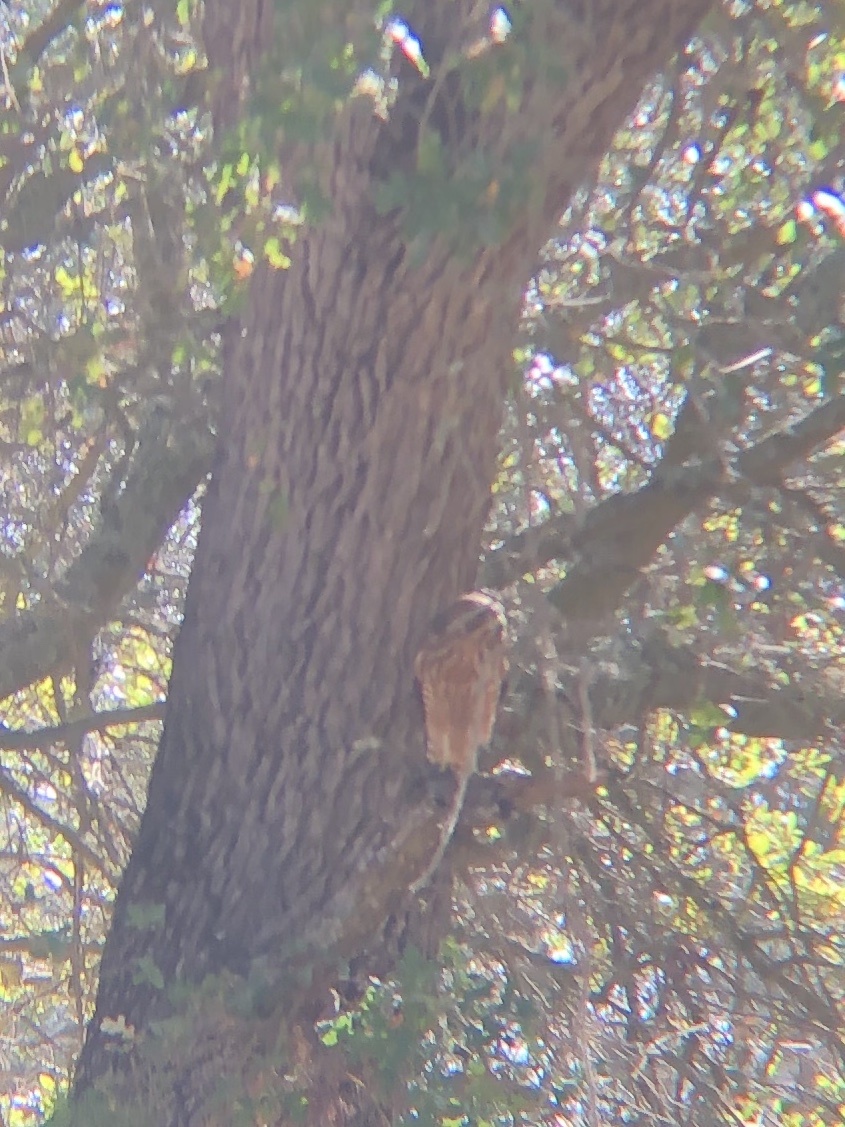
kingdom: Animalia
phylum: Chordata
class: Aves
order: Accipitriformes
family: Accipitridae
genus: Buteo
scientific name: Buteo lineatus
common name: Red-shouldered hawk
